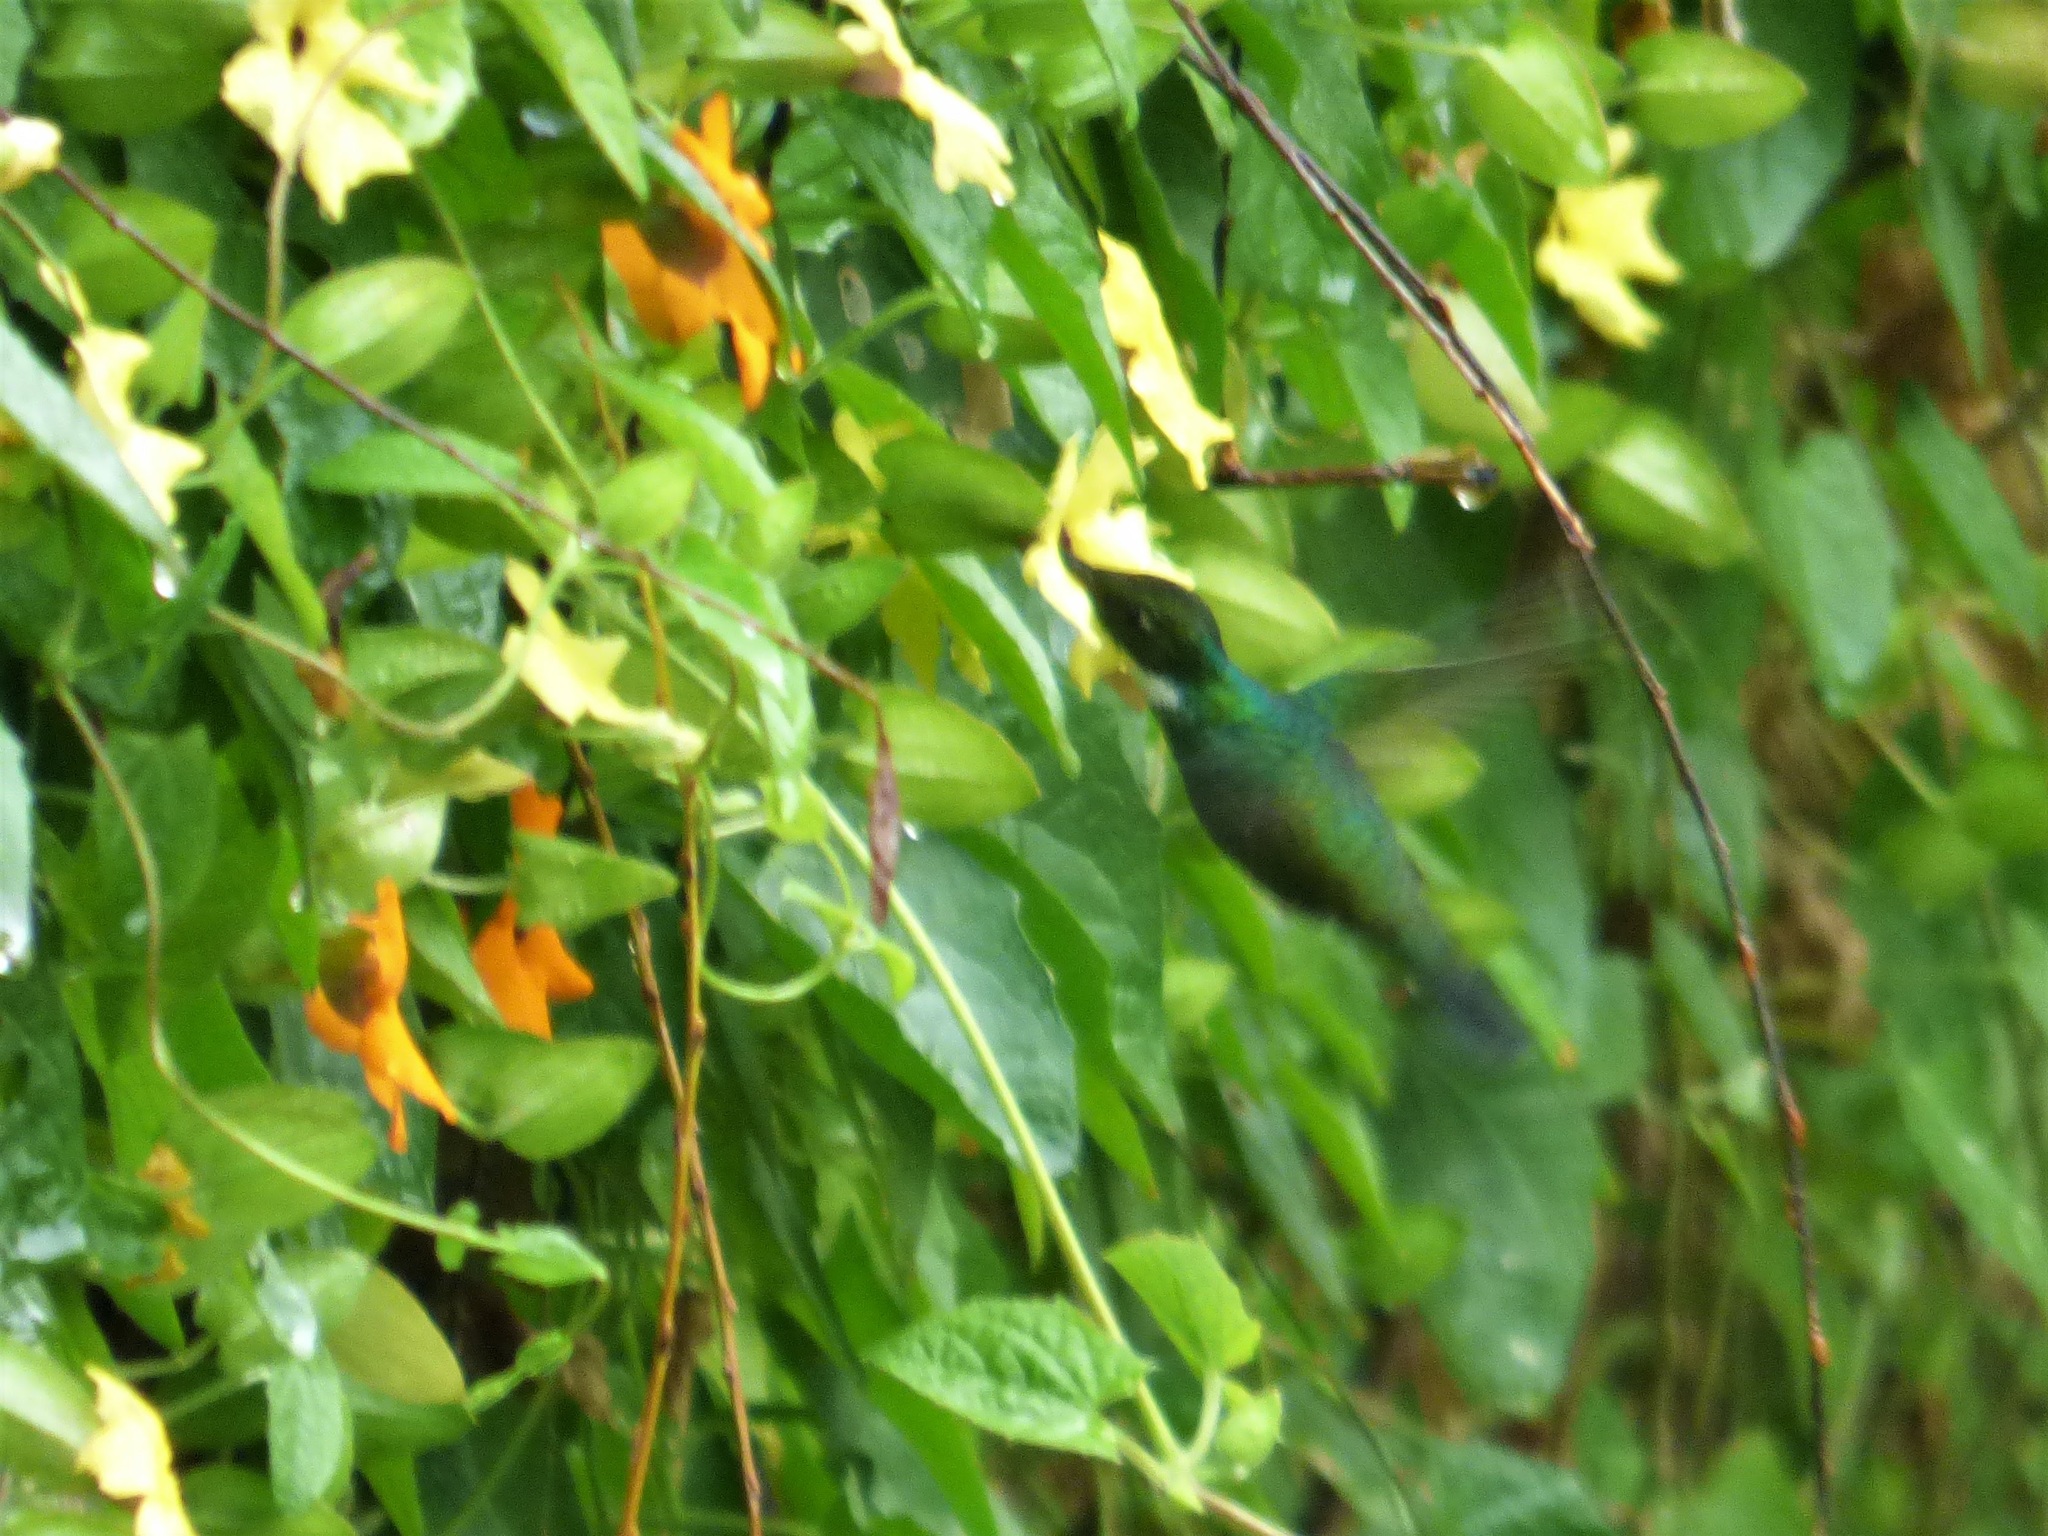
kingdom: Animalia
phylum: Chordata
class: Aves
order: Apodiformes
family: Trochilidae
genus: Leucochloris
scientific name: Leucochloris albicollis
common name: White-throated hummingbird
